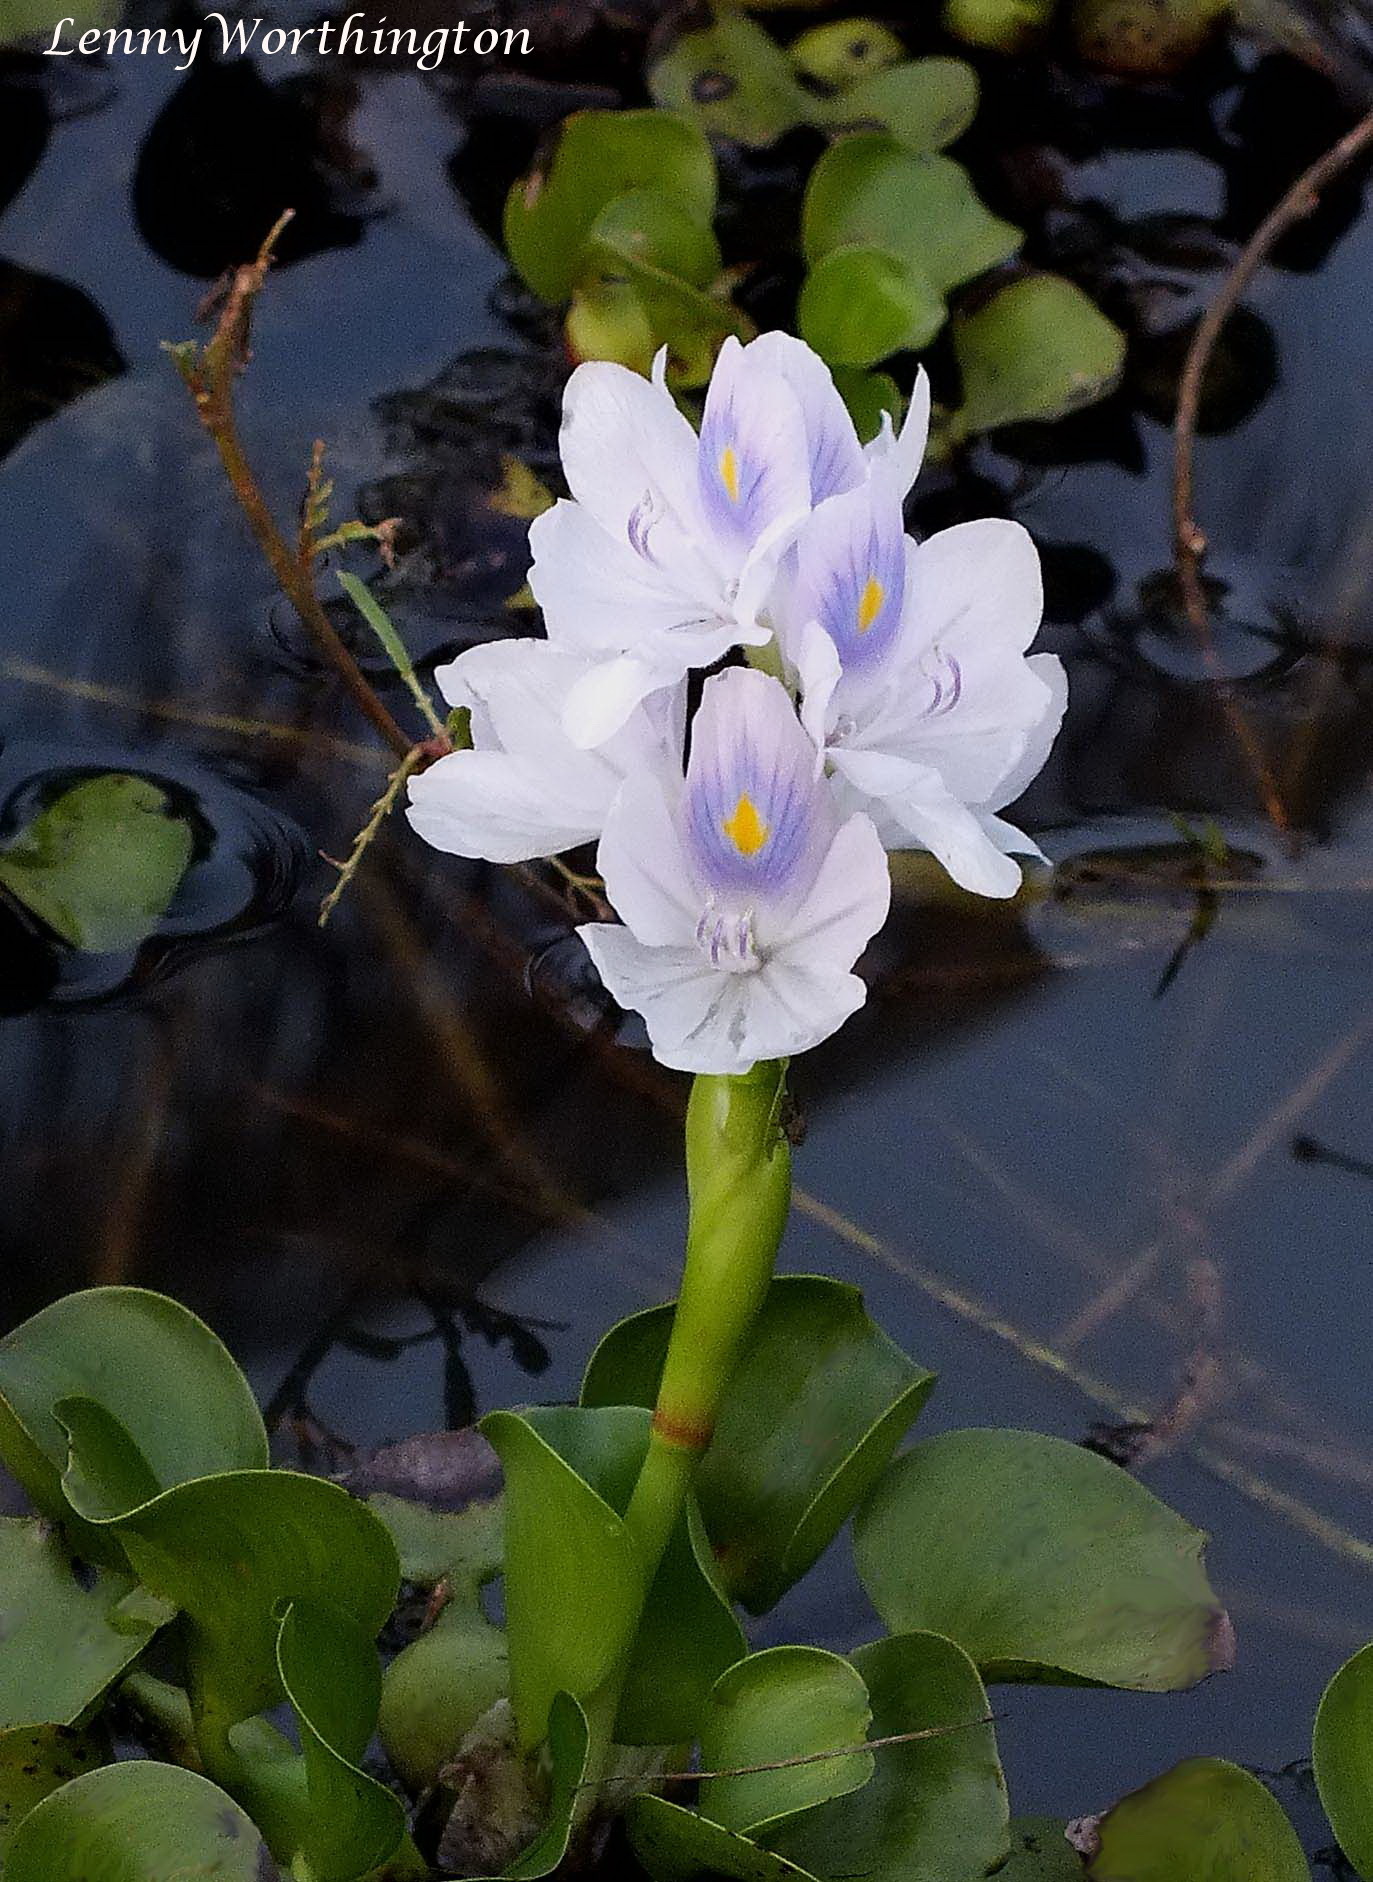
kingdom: Plantae
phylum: Tracheophyta
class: Liliopsida
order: Commelinales
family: Pontederiaceae
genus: Pontederia
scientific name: Pontederia crassipes
